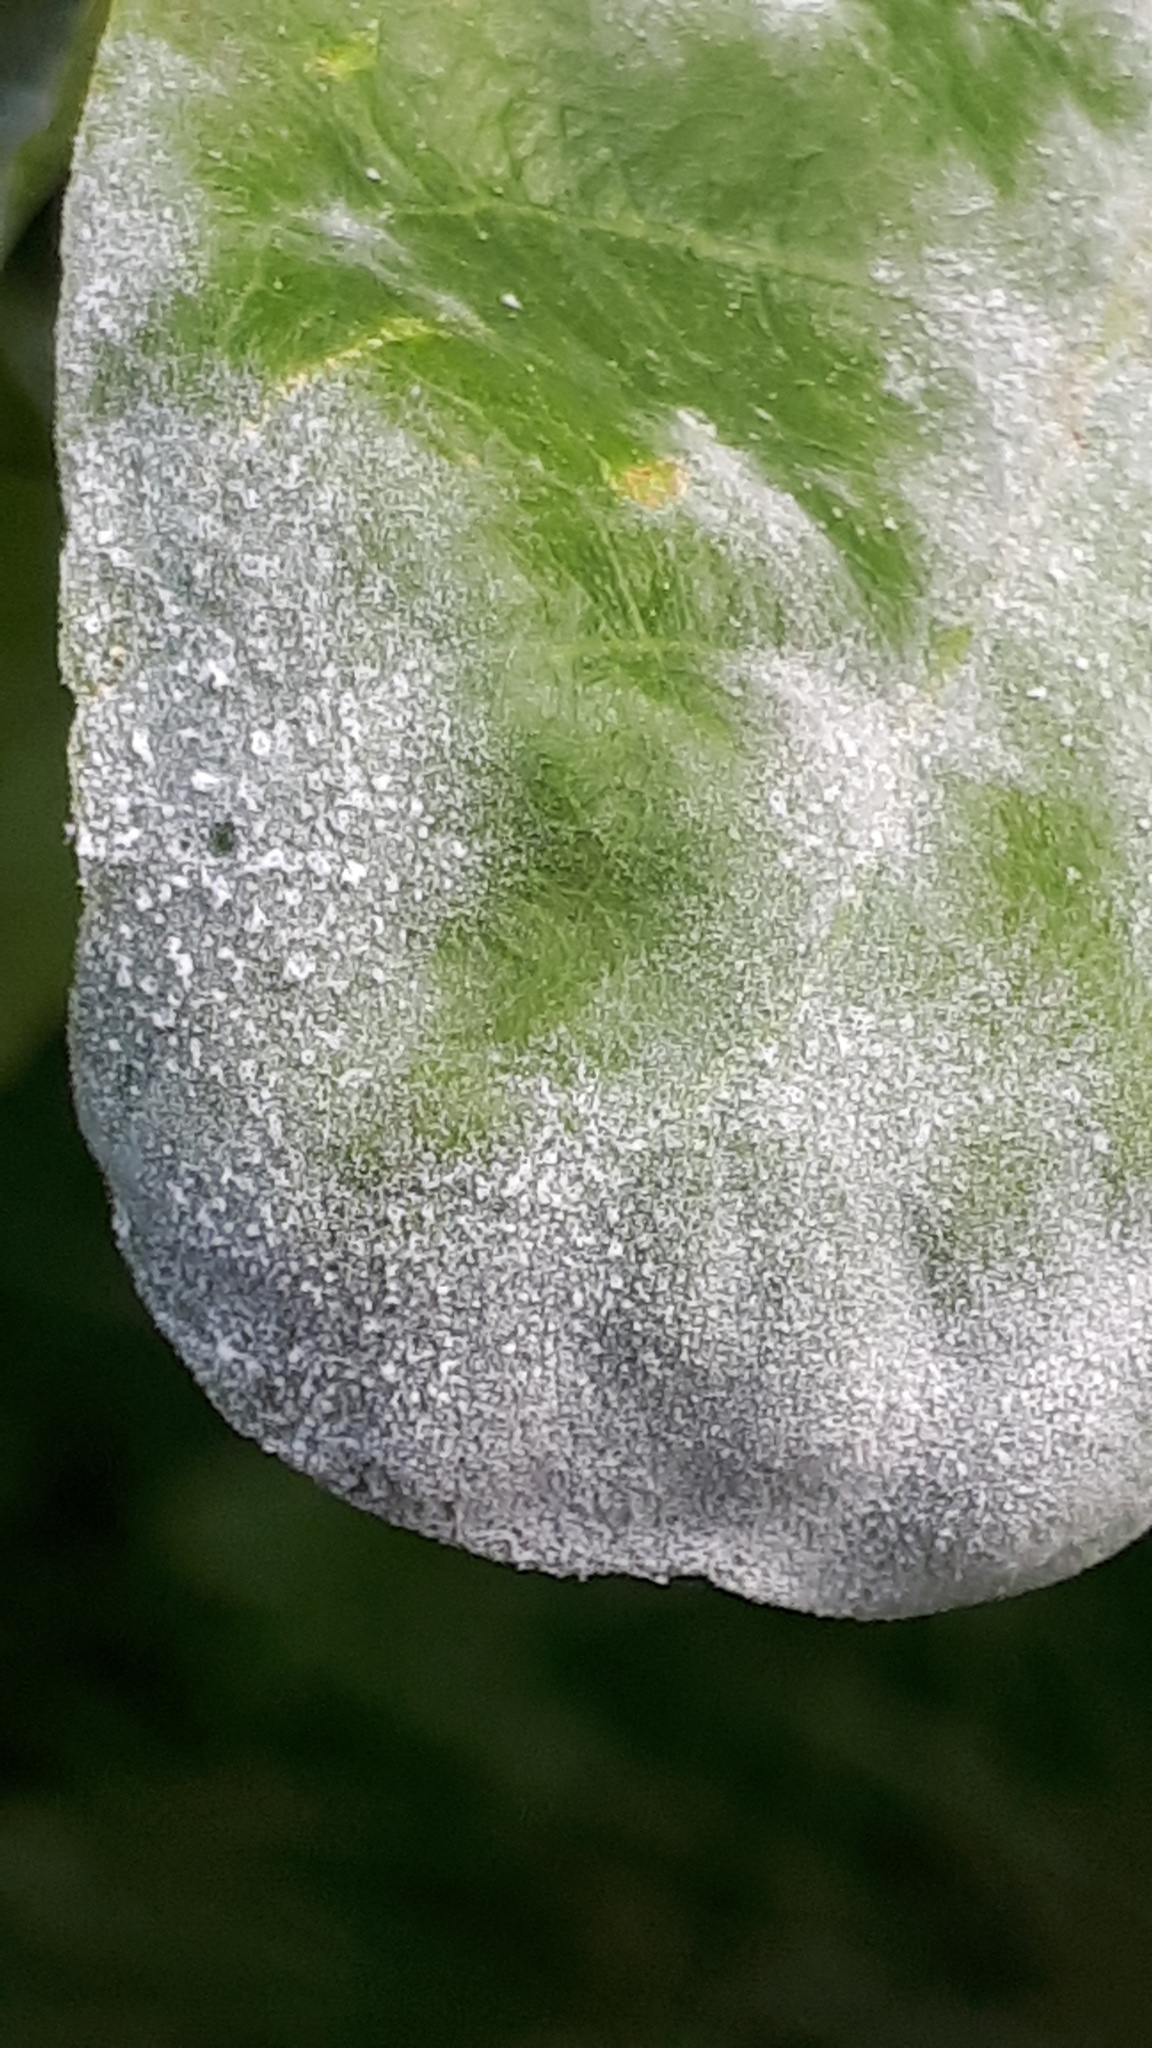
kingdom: Fungi
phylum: Ascomycota
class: Leotiomycetes
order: Helotiales
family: Erysiphaceae
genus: Erysiphe
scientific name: Erysiphe
